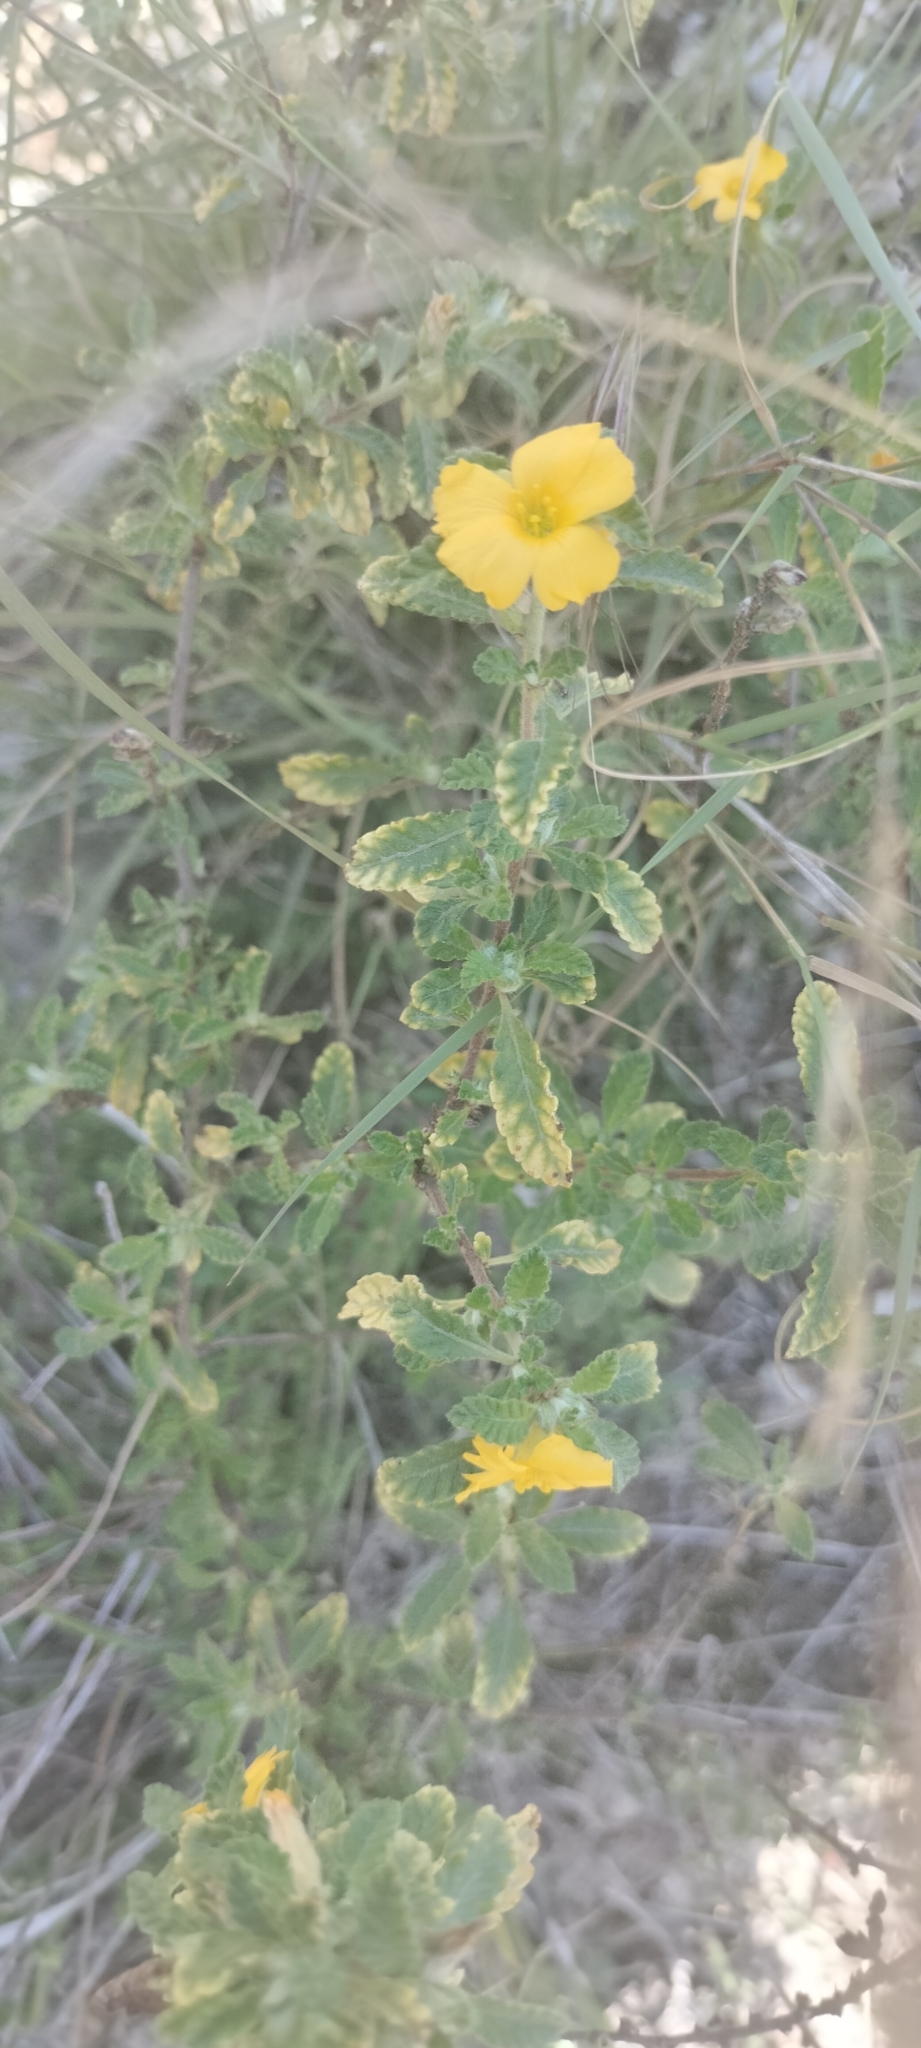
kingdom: Plantae
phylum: Tracheophyta
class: Magnoliopsida
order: Malpighiales
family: Turneraceae
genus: Turnera
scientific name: Turnera diffusa
